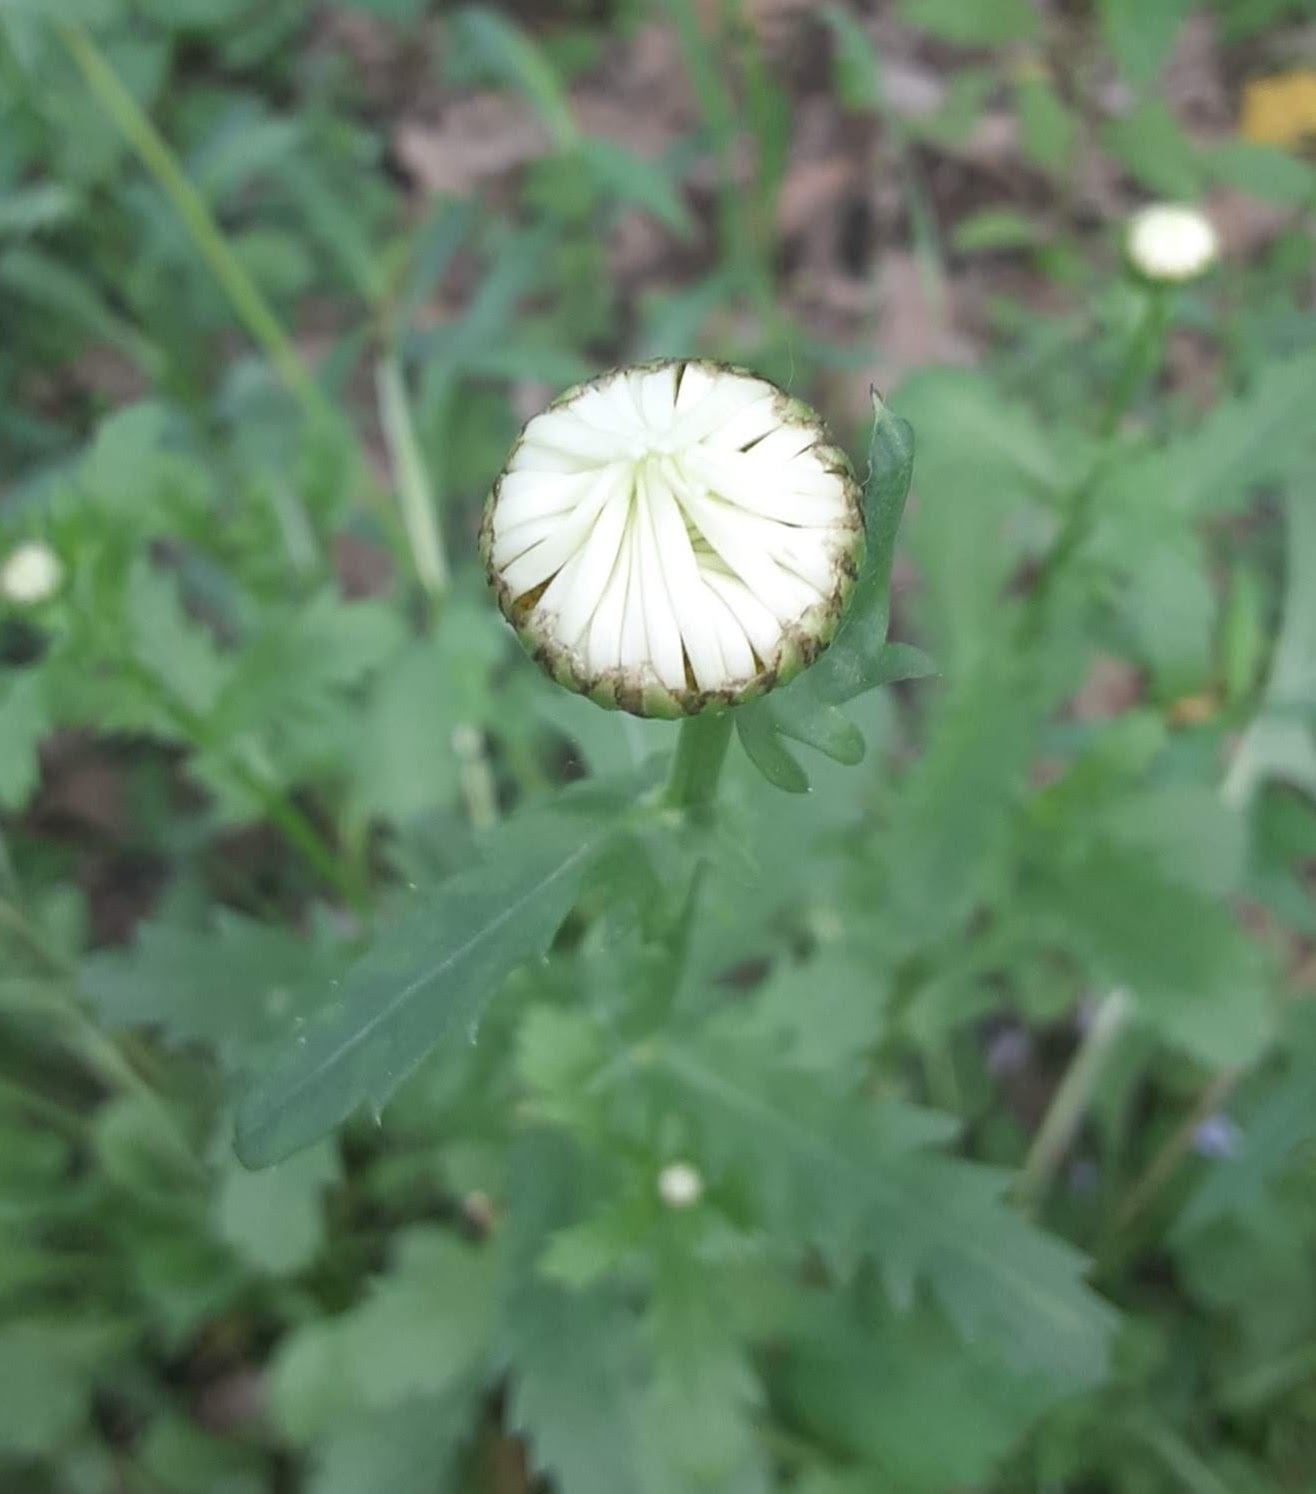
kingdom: Plantae
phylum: Tracheophyta
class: Magnoliopsida
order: Asterales
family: Asteraceae
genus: Leucanthemum
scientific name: Leucanthemum vulgare
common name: Oxeye daisy
